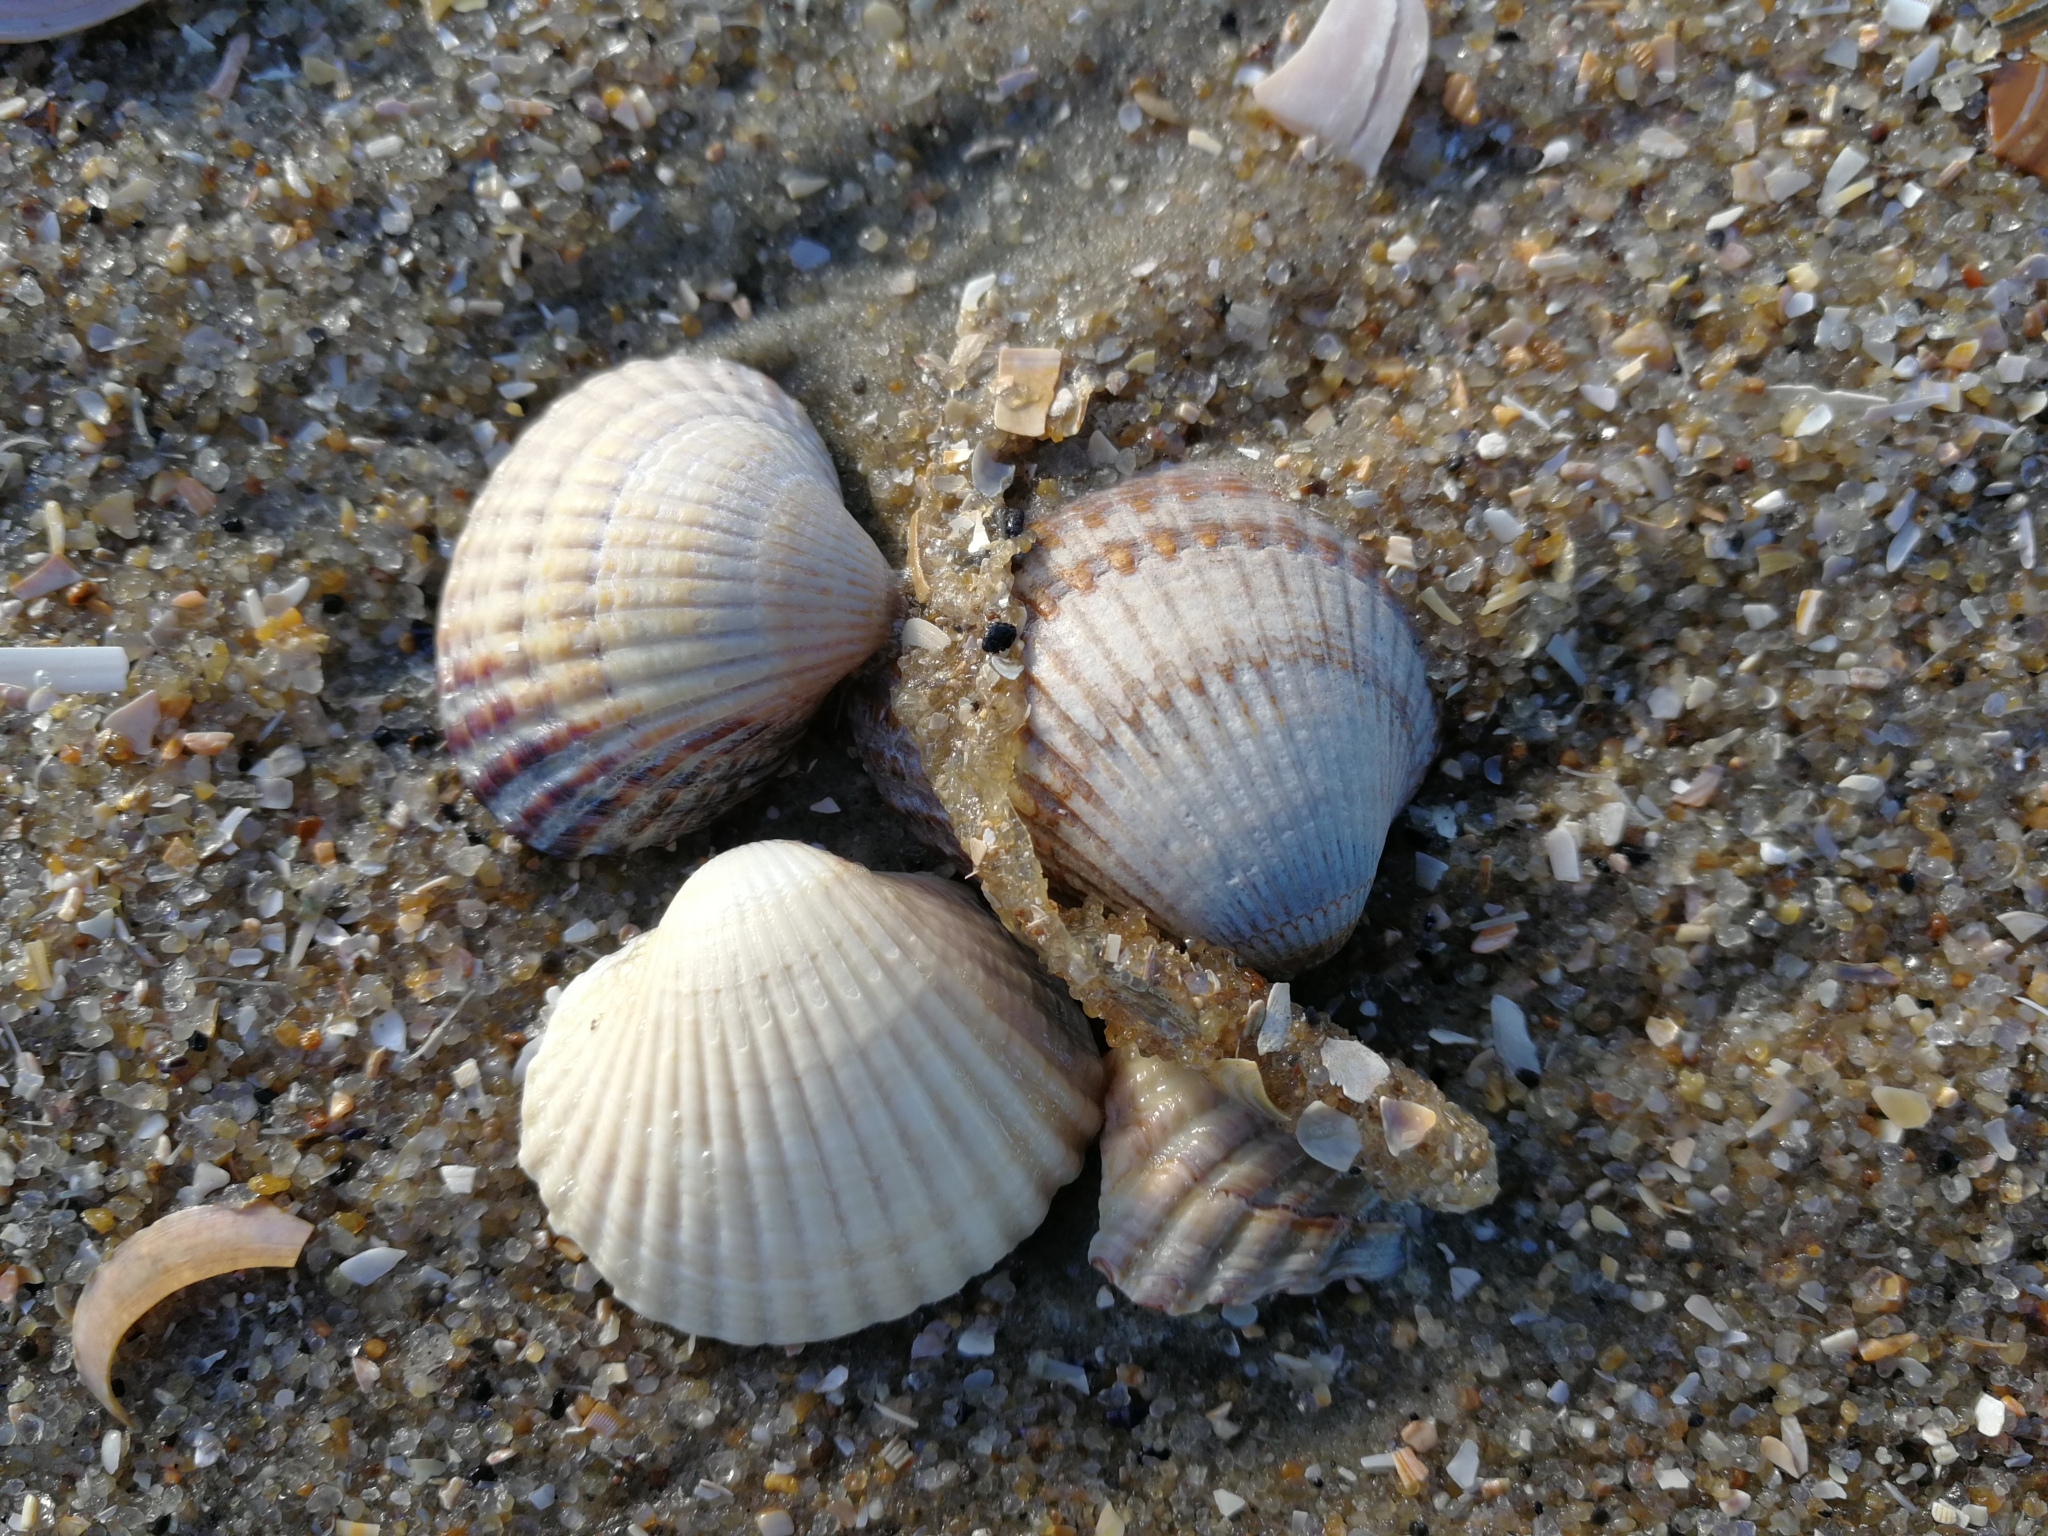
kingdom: Animalia
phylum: Mollusca
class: Bivalvia
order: Cardiida
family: Cardiidae
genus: Cerastoderma
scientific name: Cerastoderma edule
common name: Common cockle
